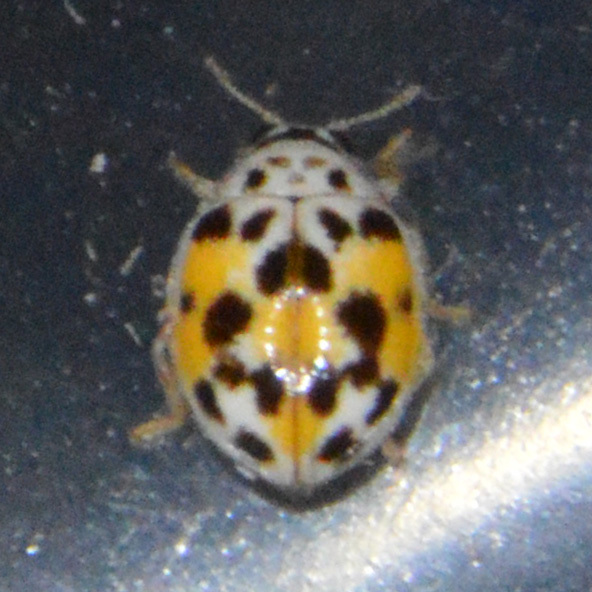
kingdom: Animalia
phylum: Arthropoda
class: Insecta
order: Coleoptera
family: Coccinellidae
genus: Psyllobora
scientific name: Psyllobora vigintimaculata
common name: Ladybird beetle
